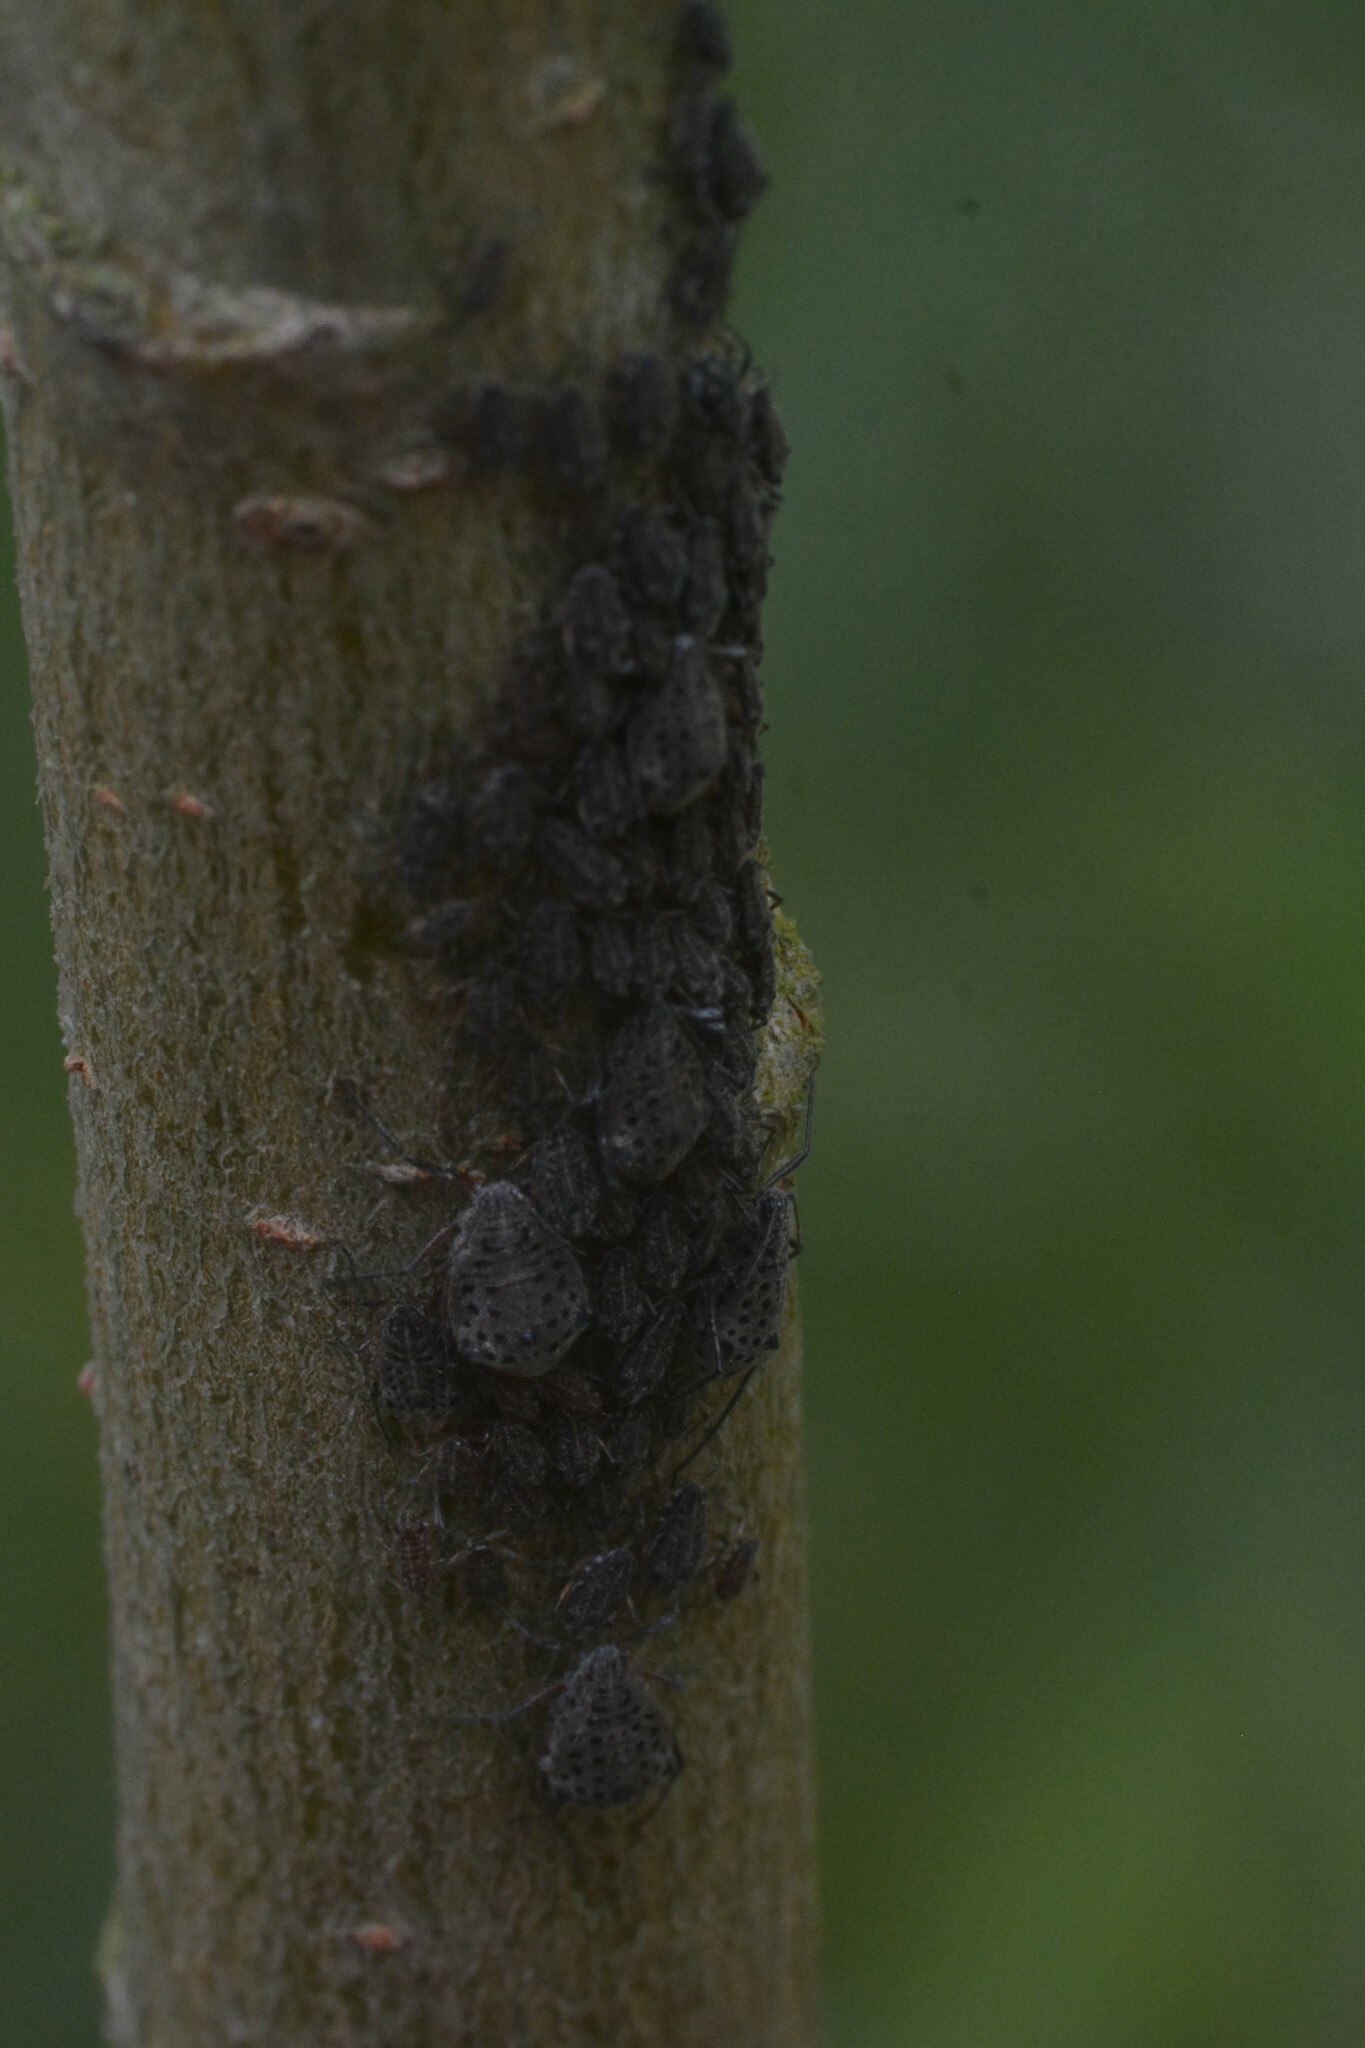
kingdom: Animalia
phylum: Arthropoda
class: Insecta
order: Hemiptera
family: Aphididae
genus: Tuberolachnus
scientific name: Tuberolachnus salignus
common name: Giant willow aphid
